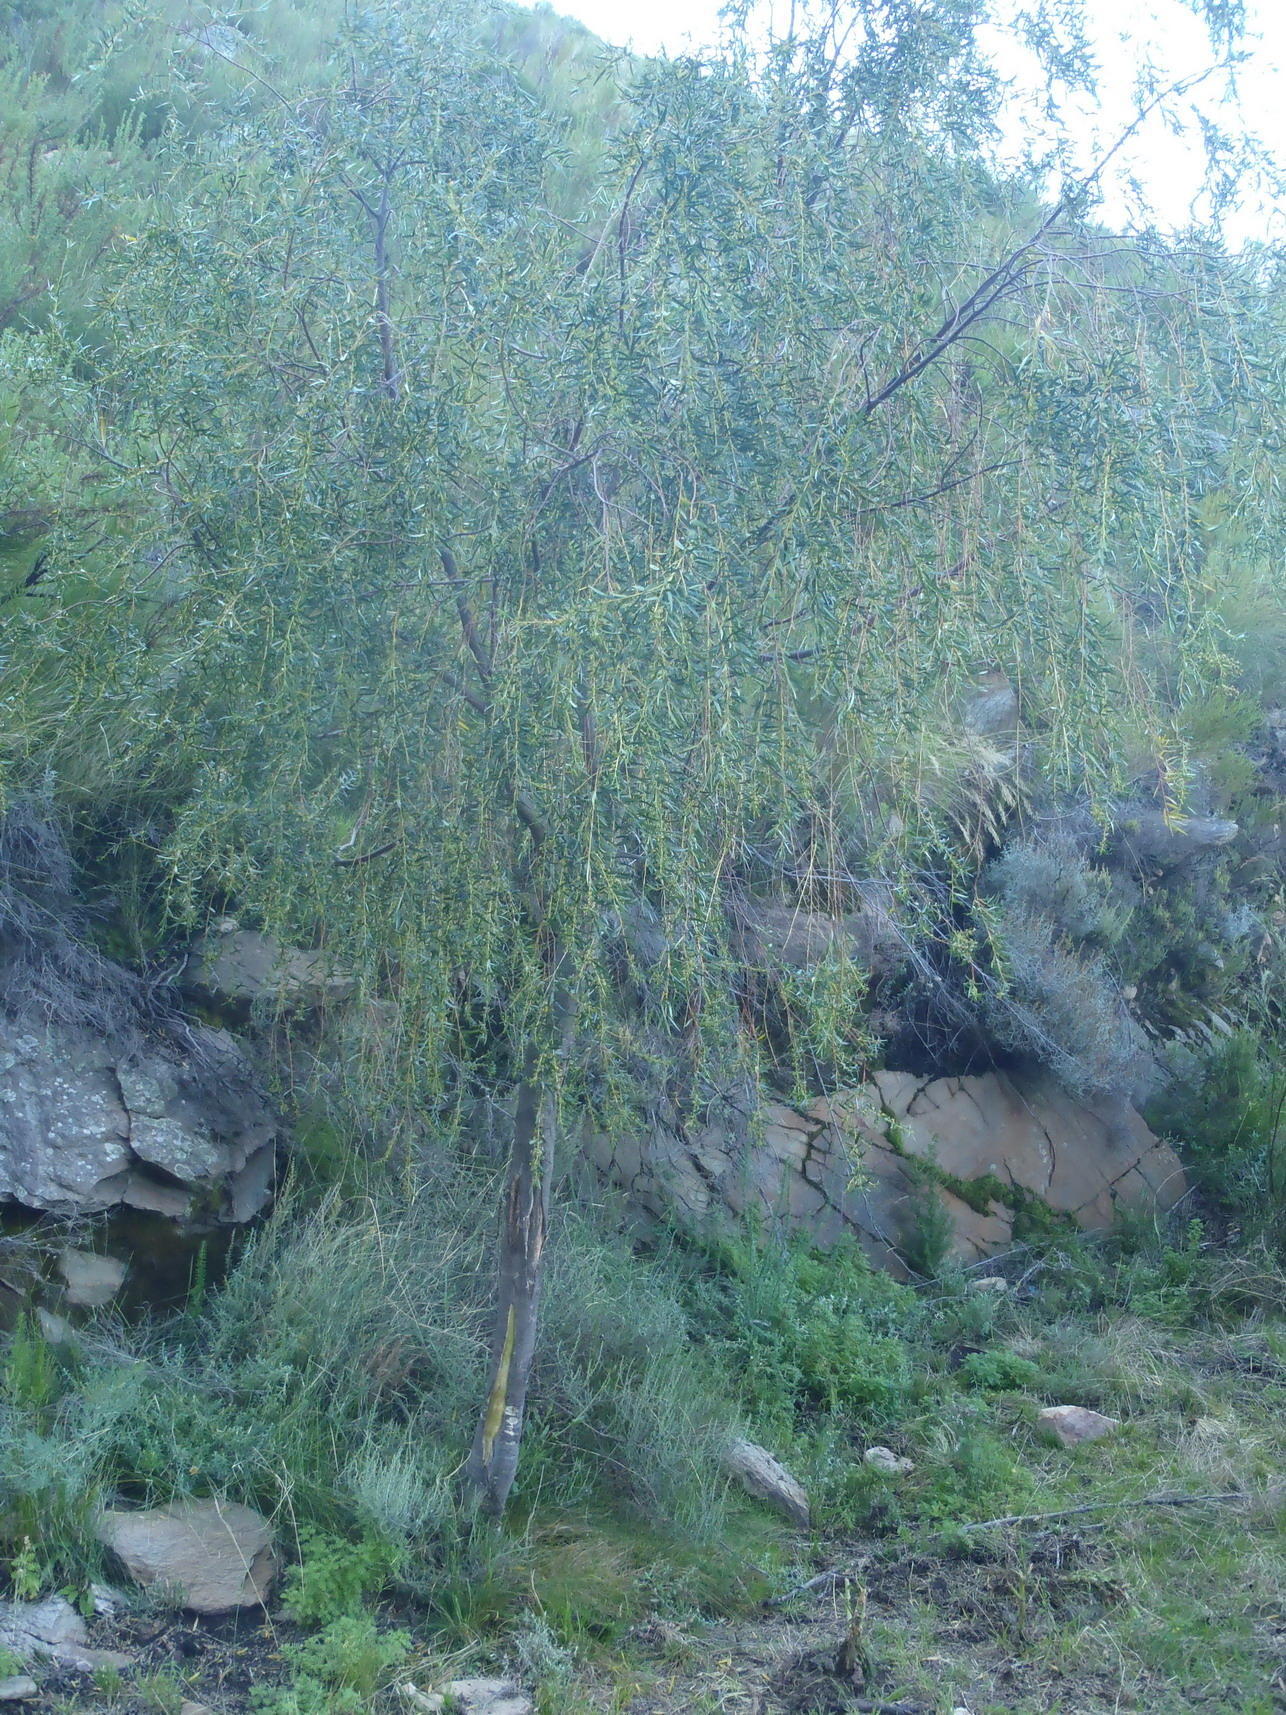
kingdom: Plantae
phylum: Tracheophyta
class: Magnoliopsida
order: Sapindales
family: Rutaceae
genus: Empleurum
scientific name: Empleurum unicapsulare
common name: False buchu
